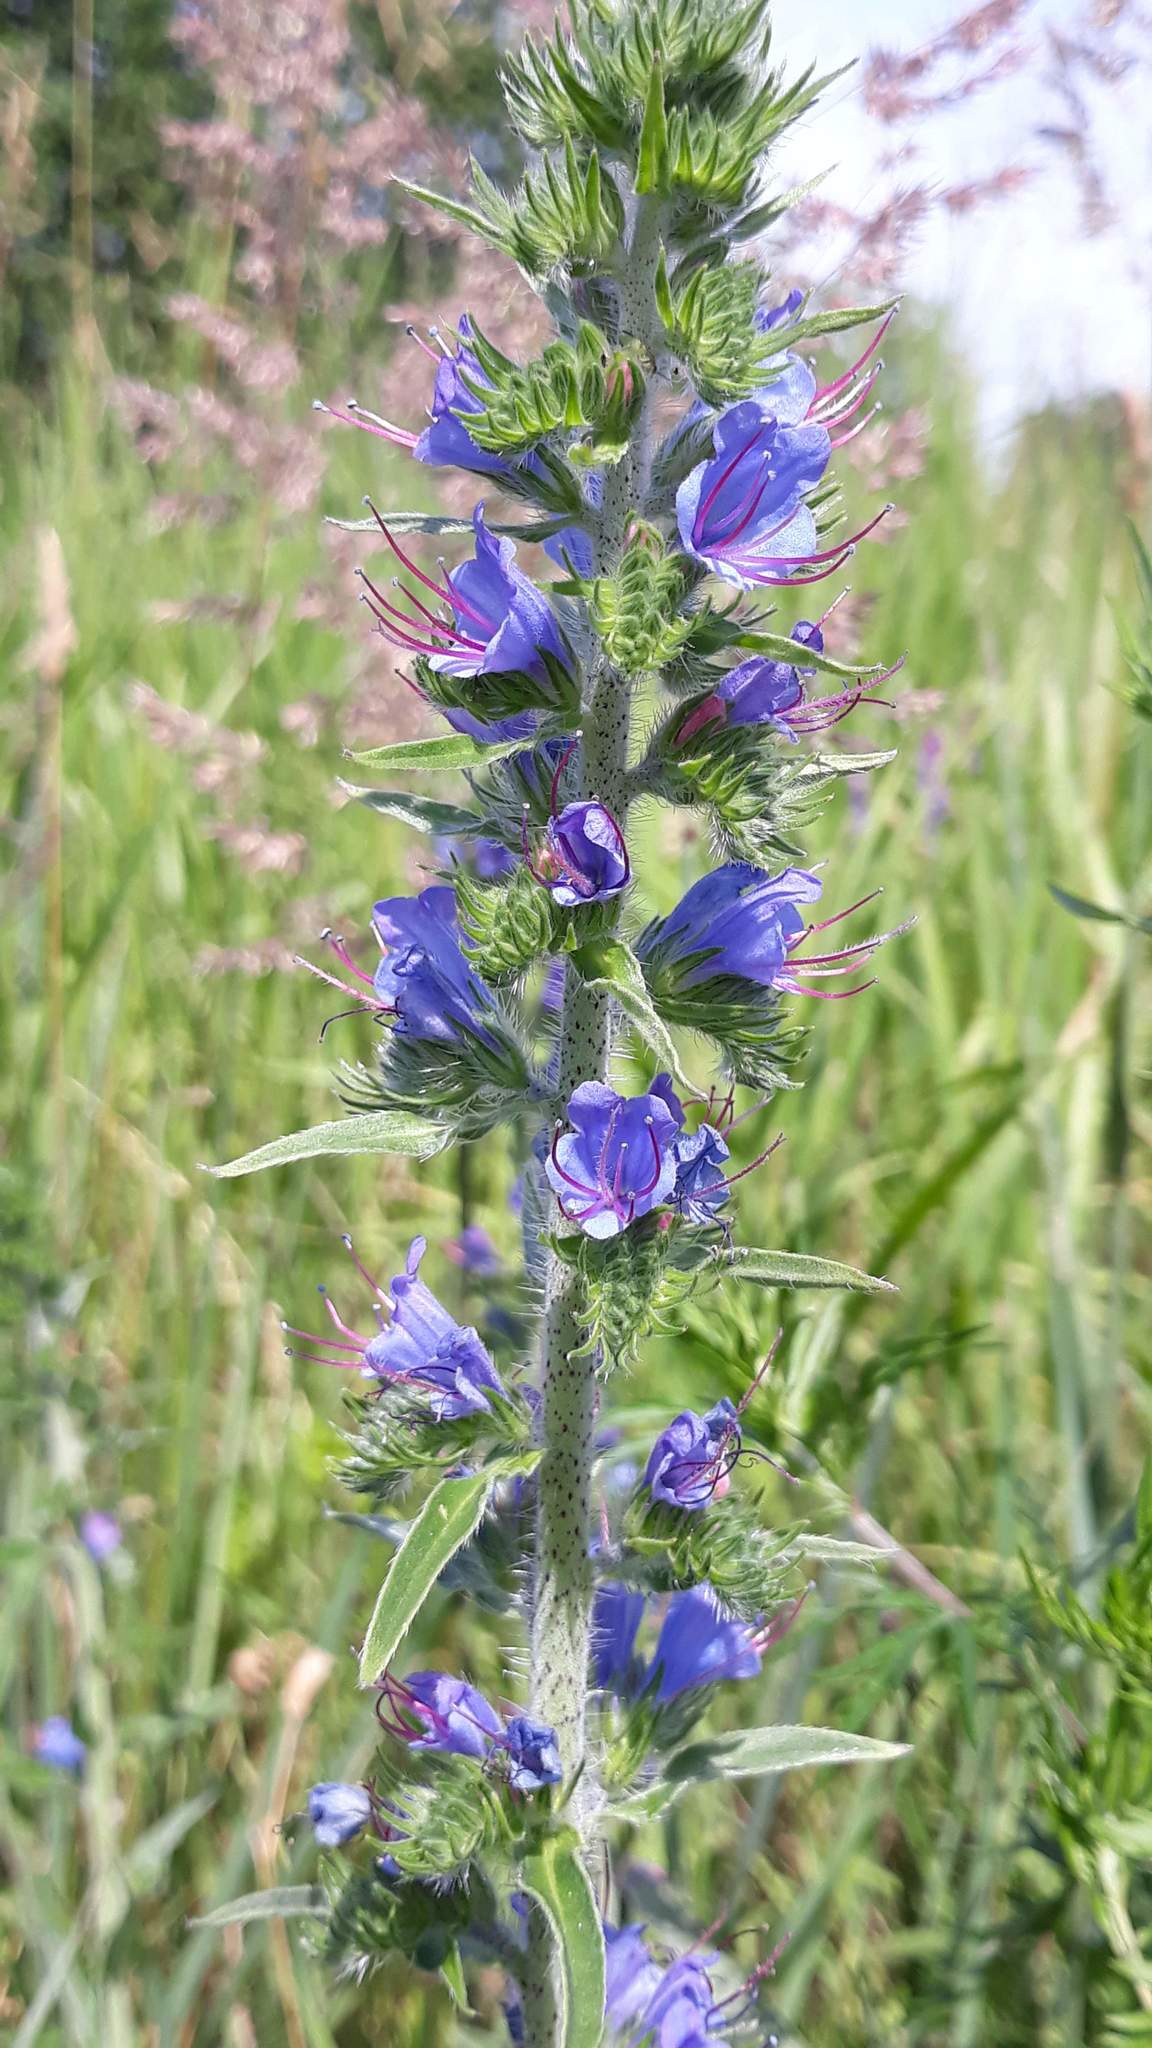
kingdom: Plantae
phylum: Tracheophyta
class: Magnoliopsida
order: Boraginales
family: Boraginaceae
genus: Echium
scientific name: Echium vulgare
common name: Common viper's bugloss
